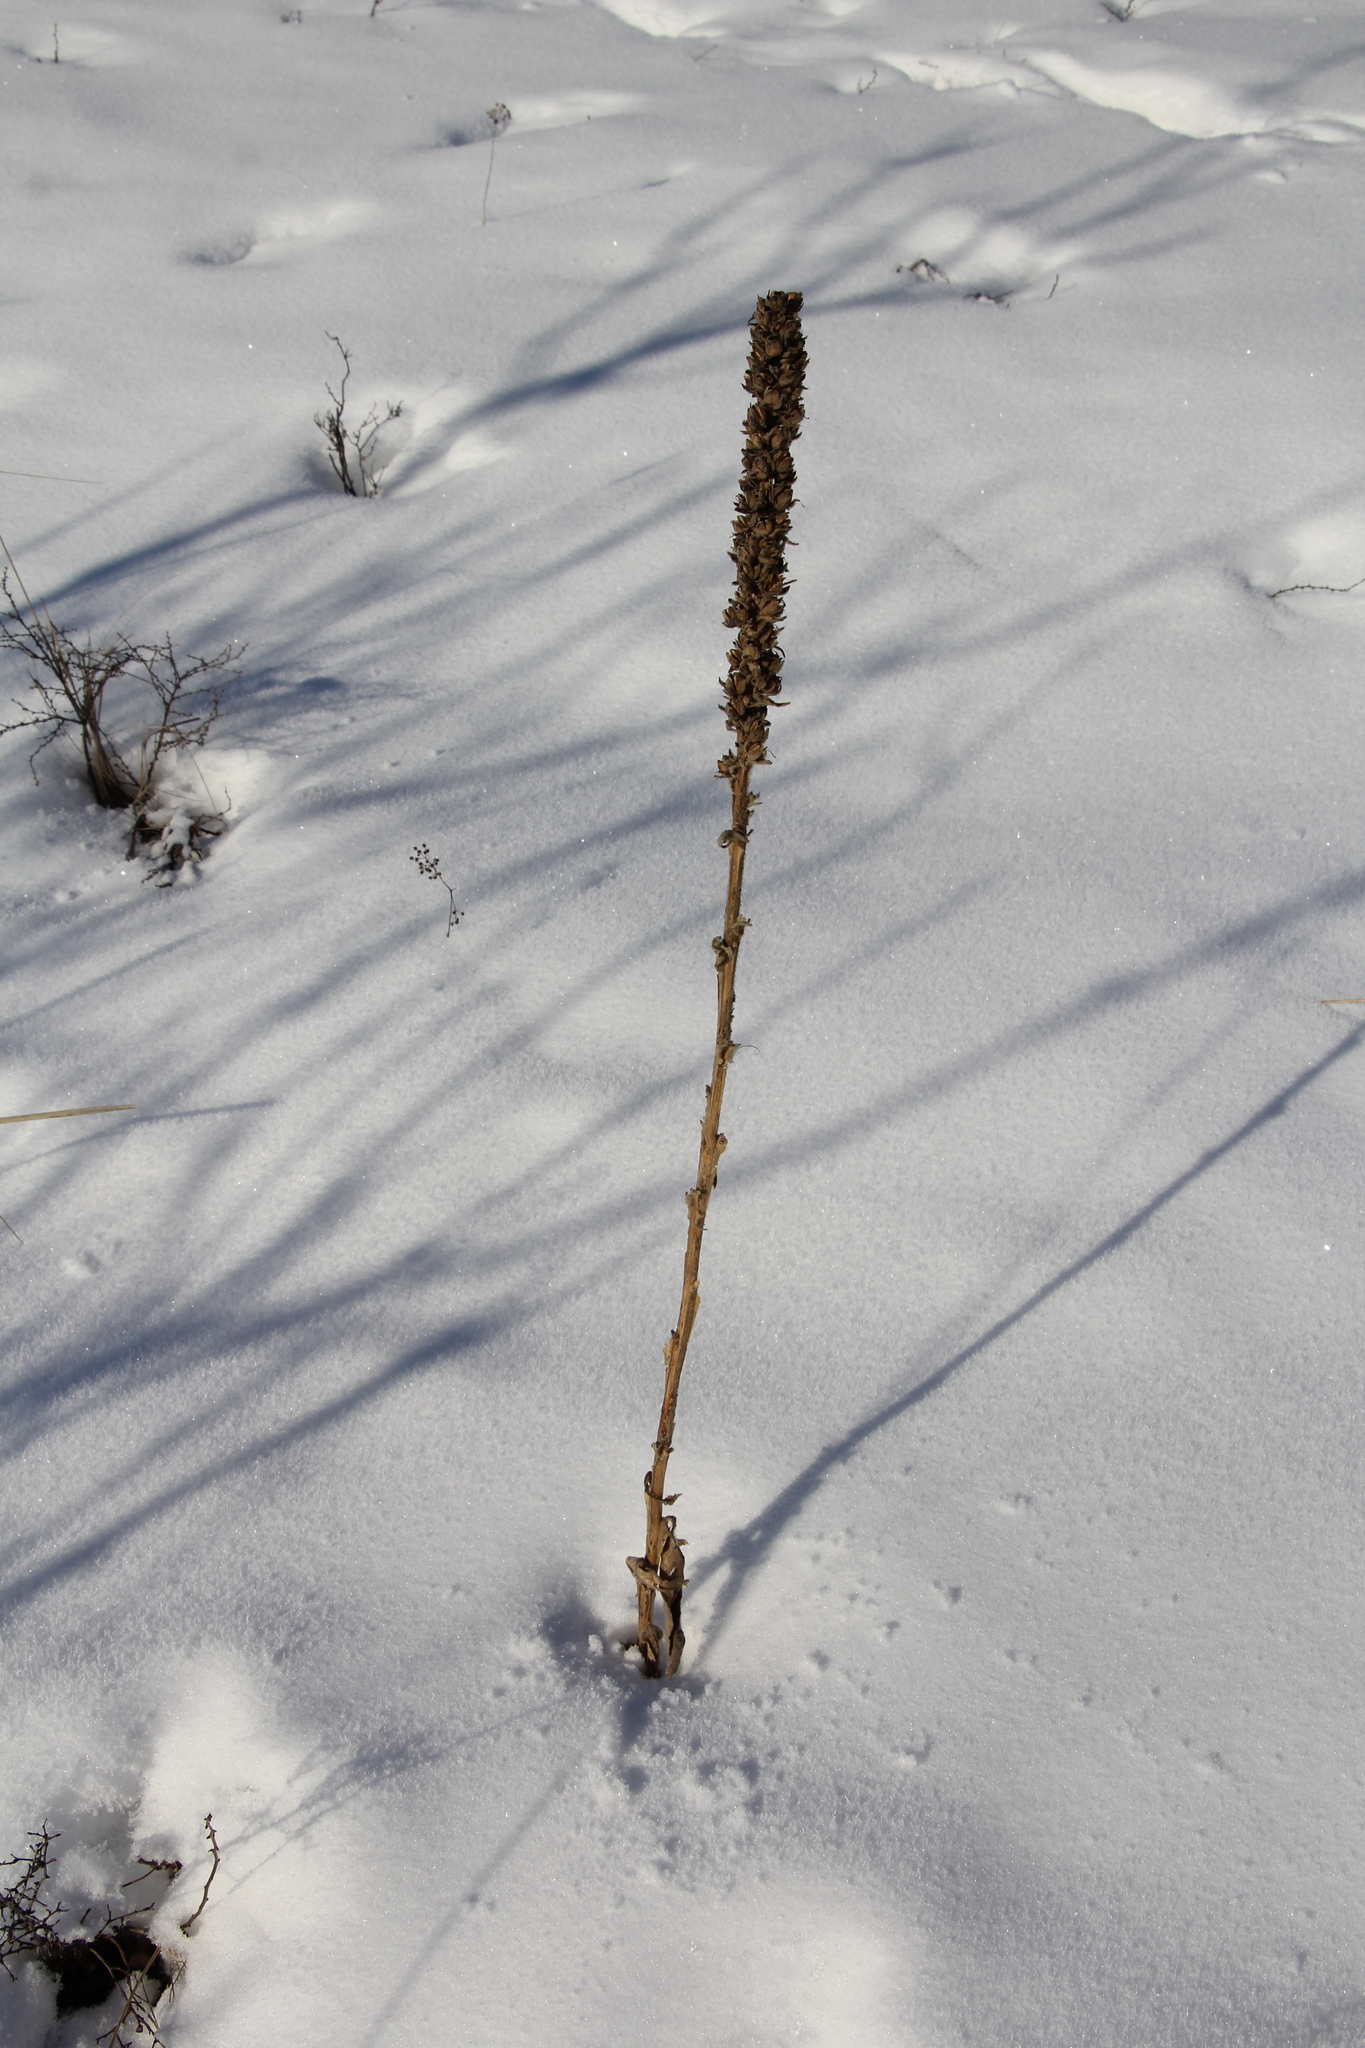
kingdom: Plantae
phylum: Tracheophyta
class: Magnoliopsida
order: Lamiales
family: Scrophulariaceae
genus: Verbascum
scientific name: Verbascum thapsus
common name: Common mullein
